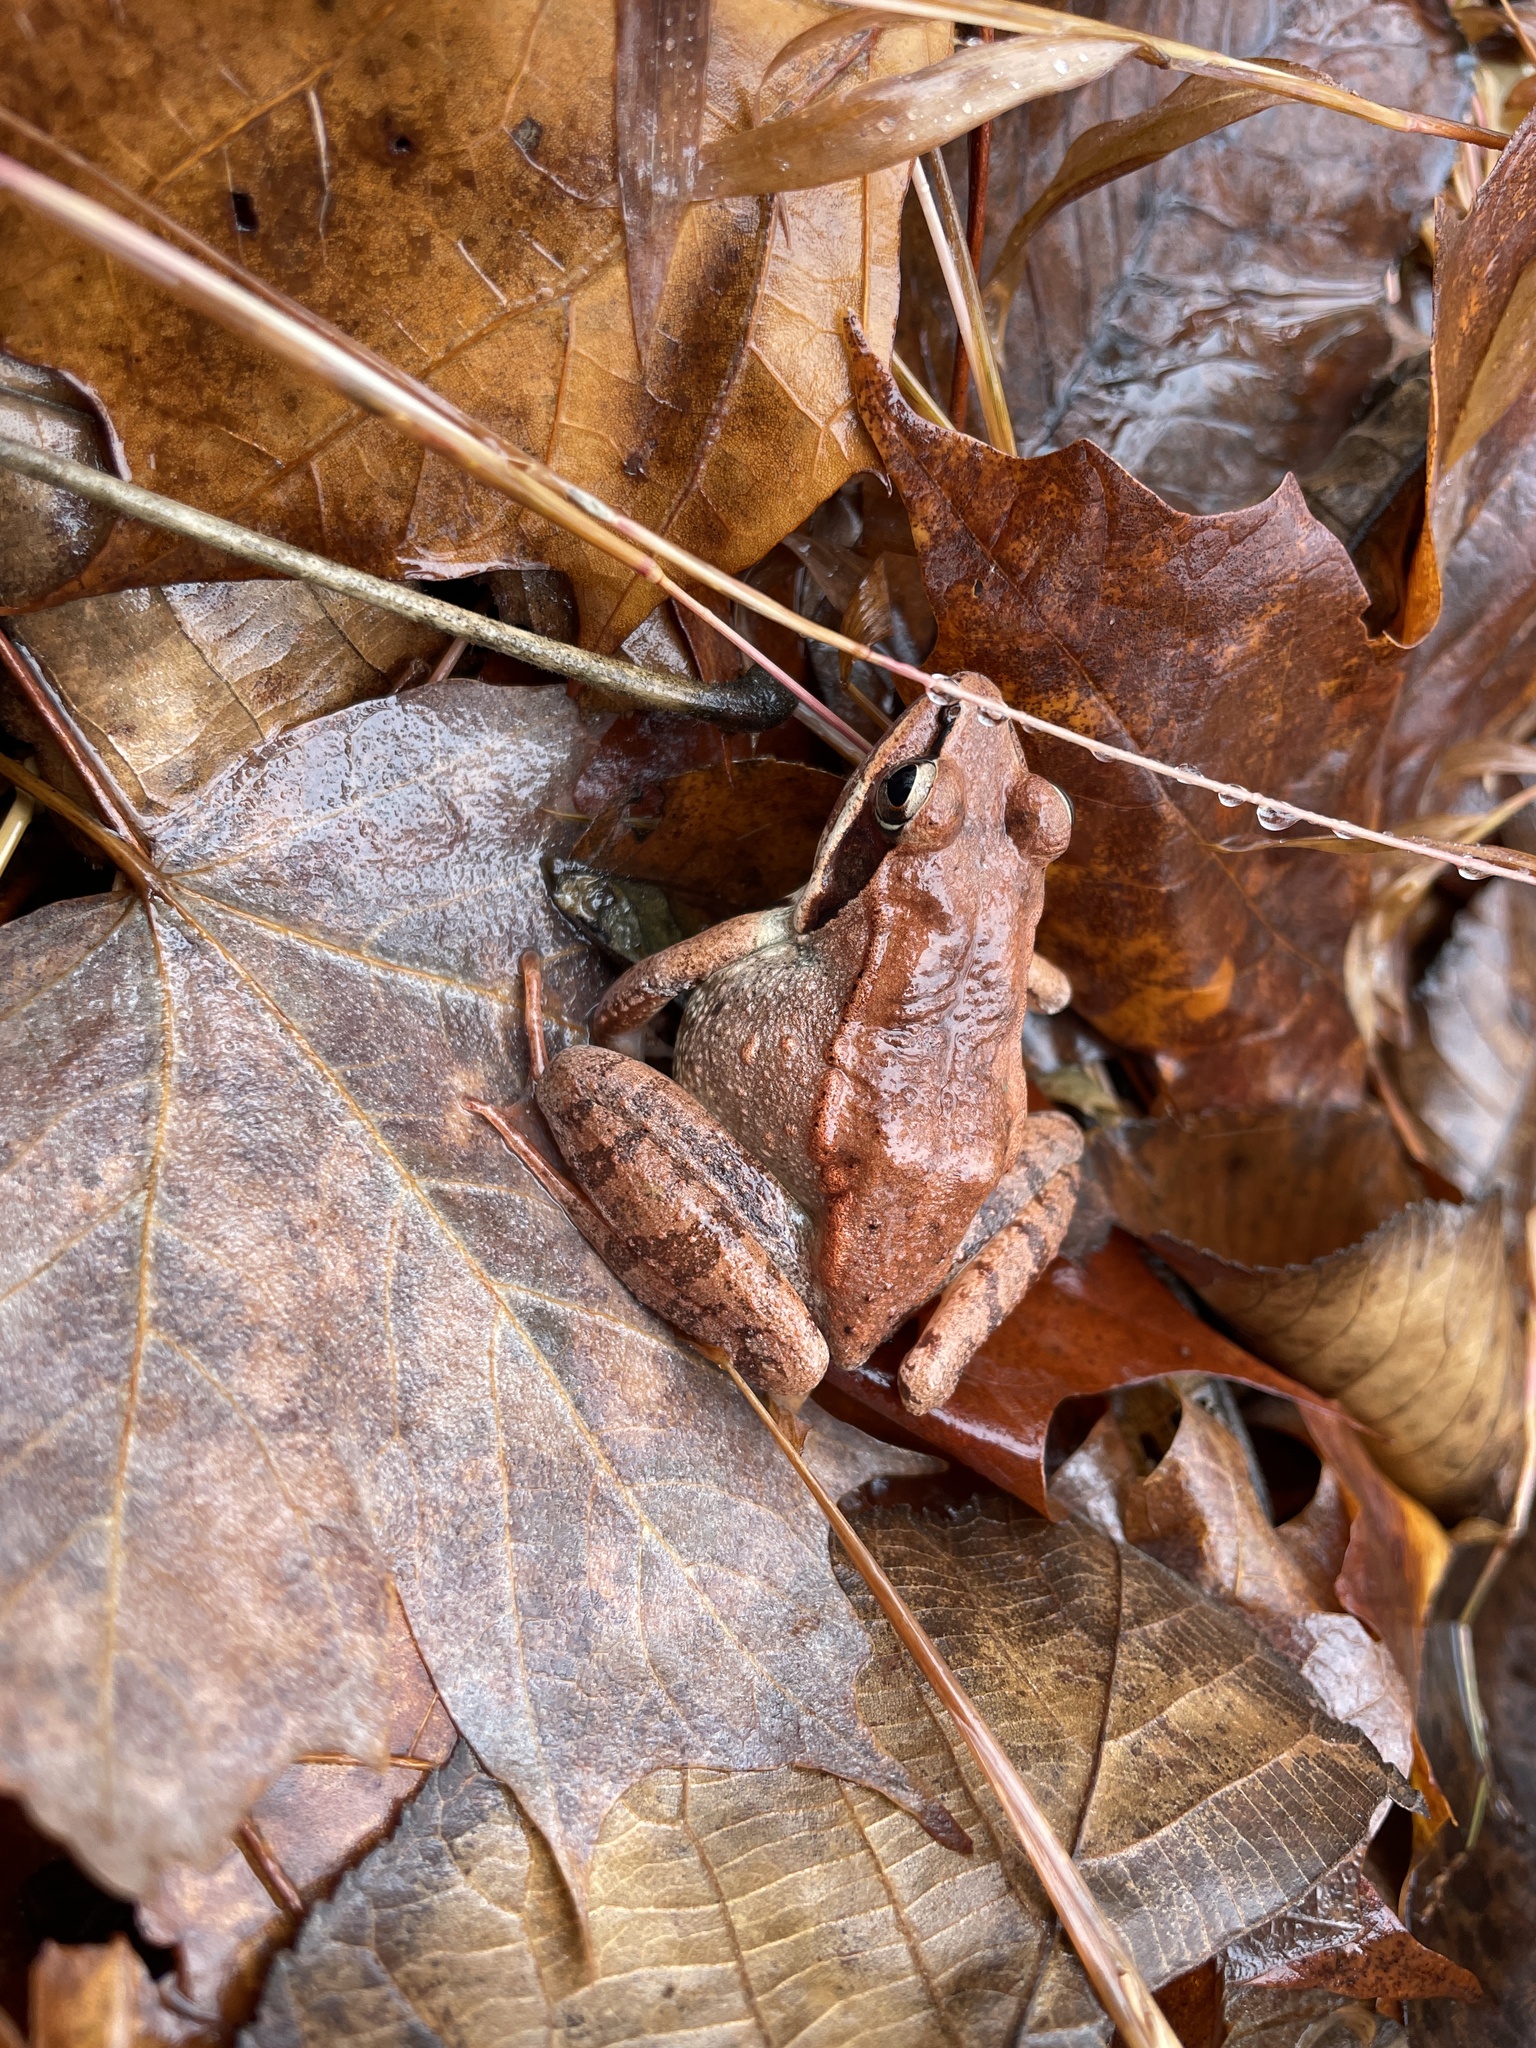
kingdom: Animalia
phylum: Chordata
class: Amphibia
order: Anura
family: Ranidae
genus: Lithobates
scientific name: Lithobates sylvaticus
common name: Wood frog
